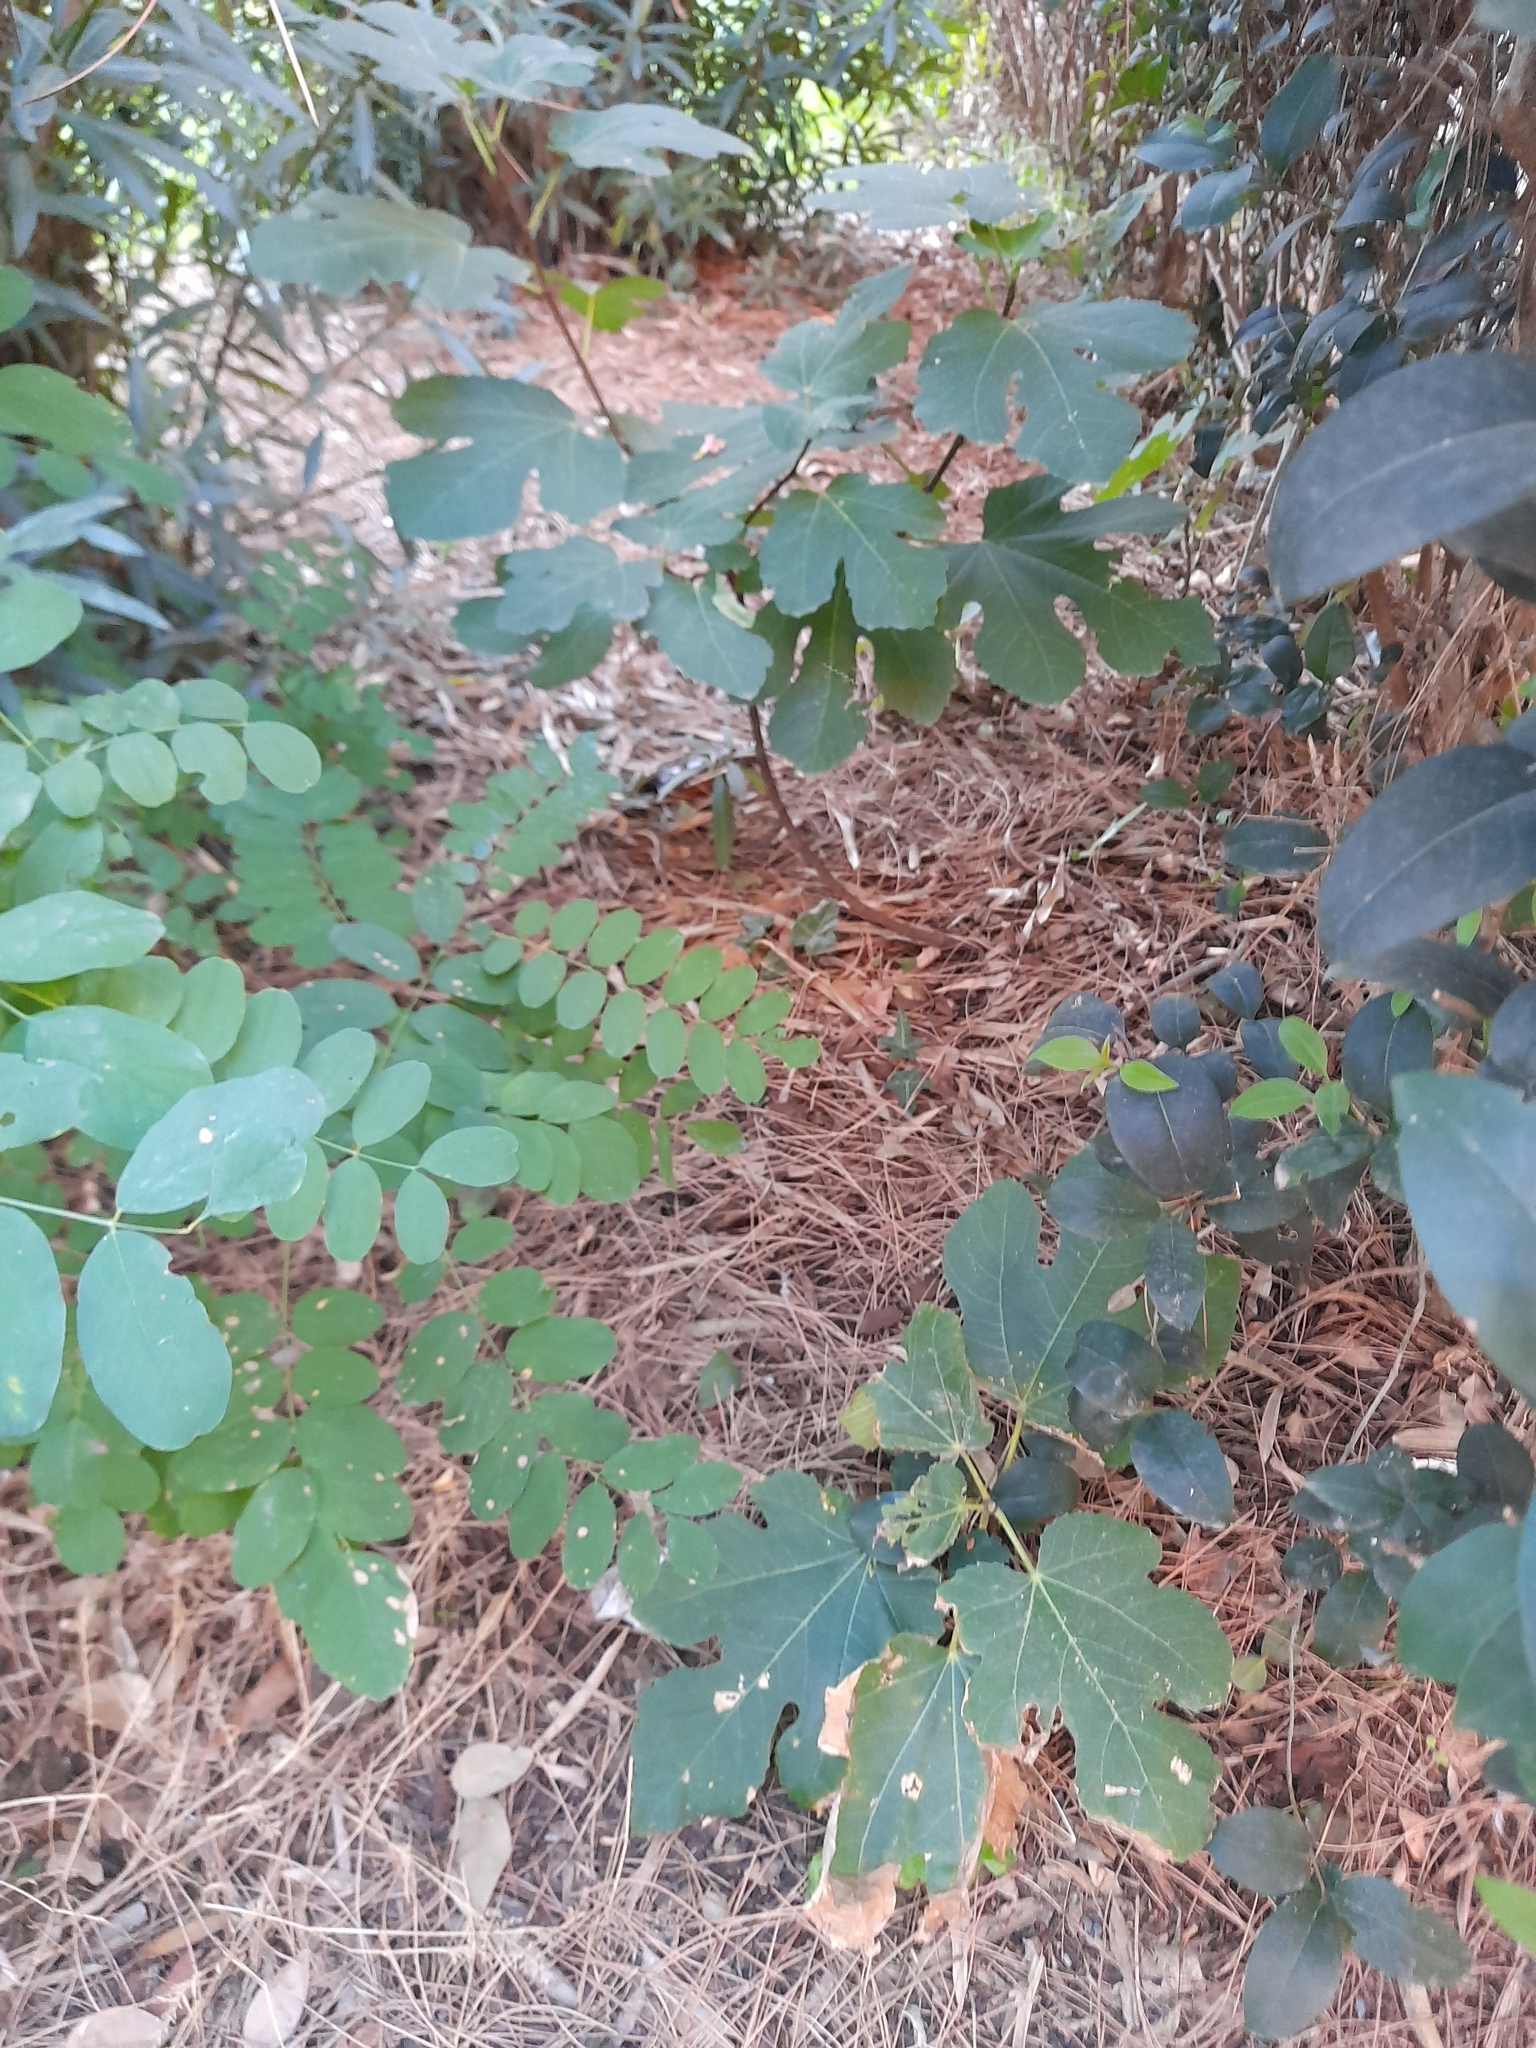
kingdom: Plantae
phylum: Tracheophyta
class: Magnoliopsida
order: Rosales
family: Moraceae
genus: Ficus
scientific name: Ficus carica
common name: Fig
